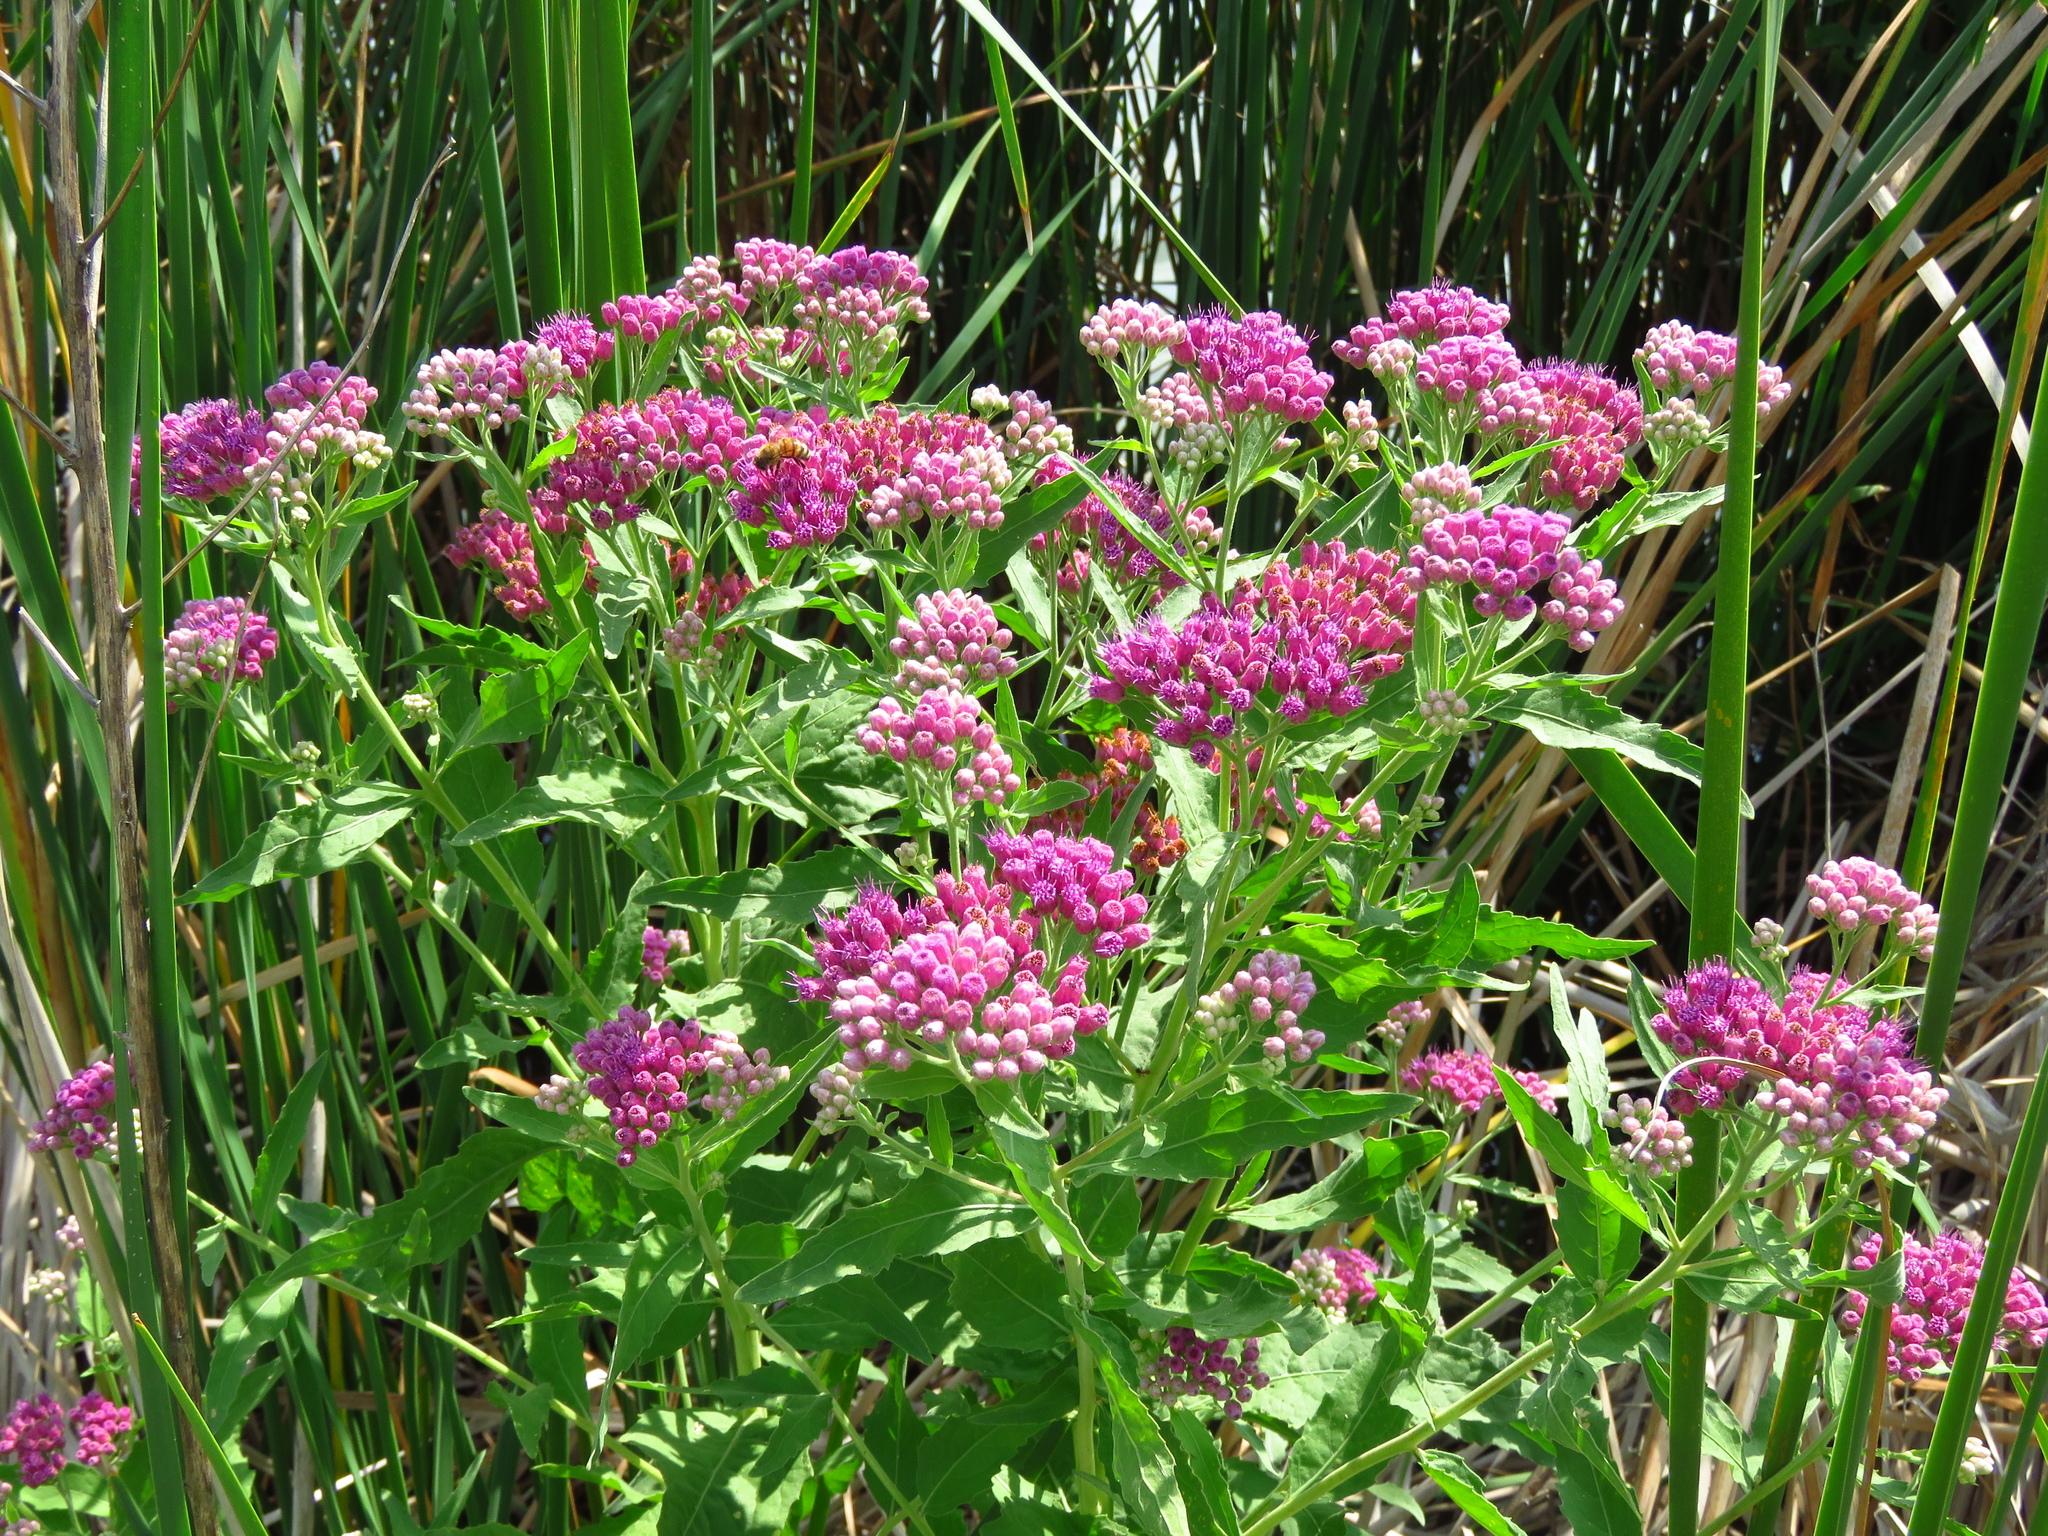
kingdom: Plantae
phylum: Tracheophyta
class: Magnoliopsida
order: Asterales
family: Asteraceae
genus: Pluchea
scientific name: Pluchea odorata
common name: Saltmarsh fleabane
